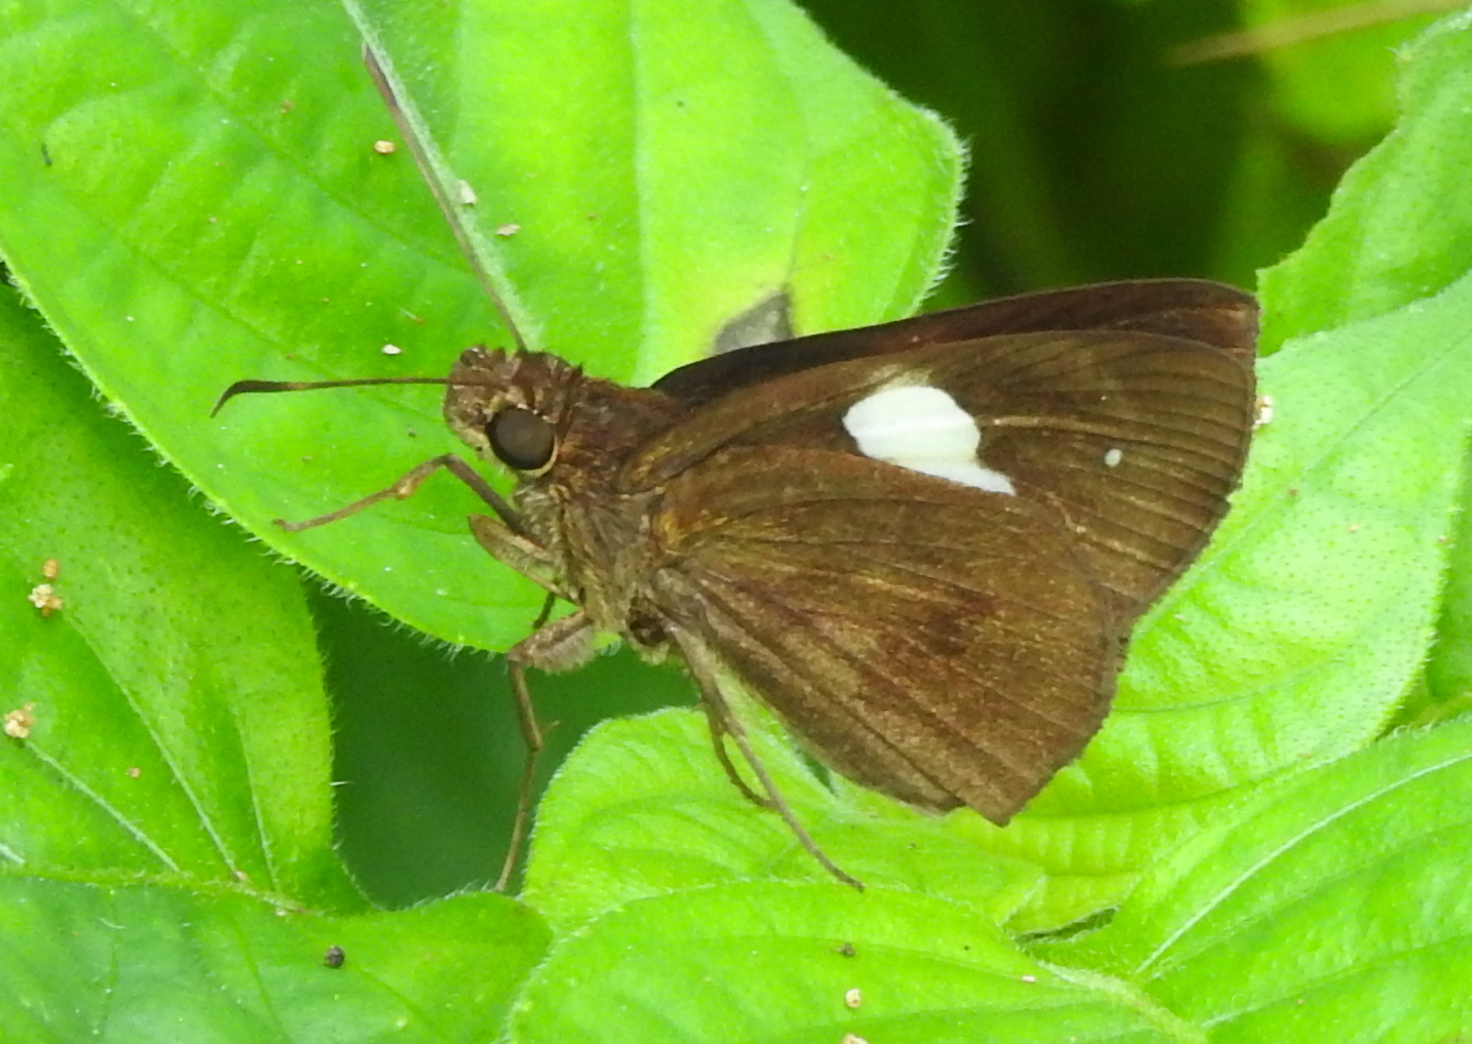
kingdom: Animalia
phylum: Arthropoda
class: Insecta
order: Lepidoptera
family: Hesperiidae
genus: Notocrypta
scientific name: Notocrypta paralysos
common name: Common banded demon
